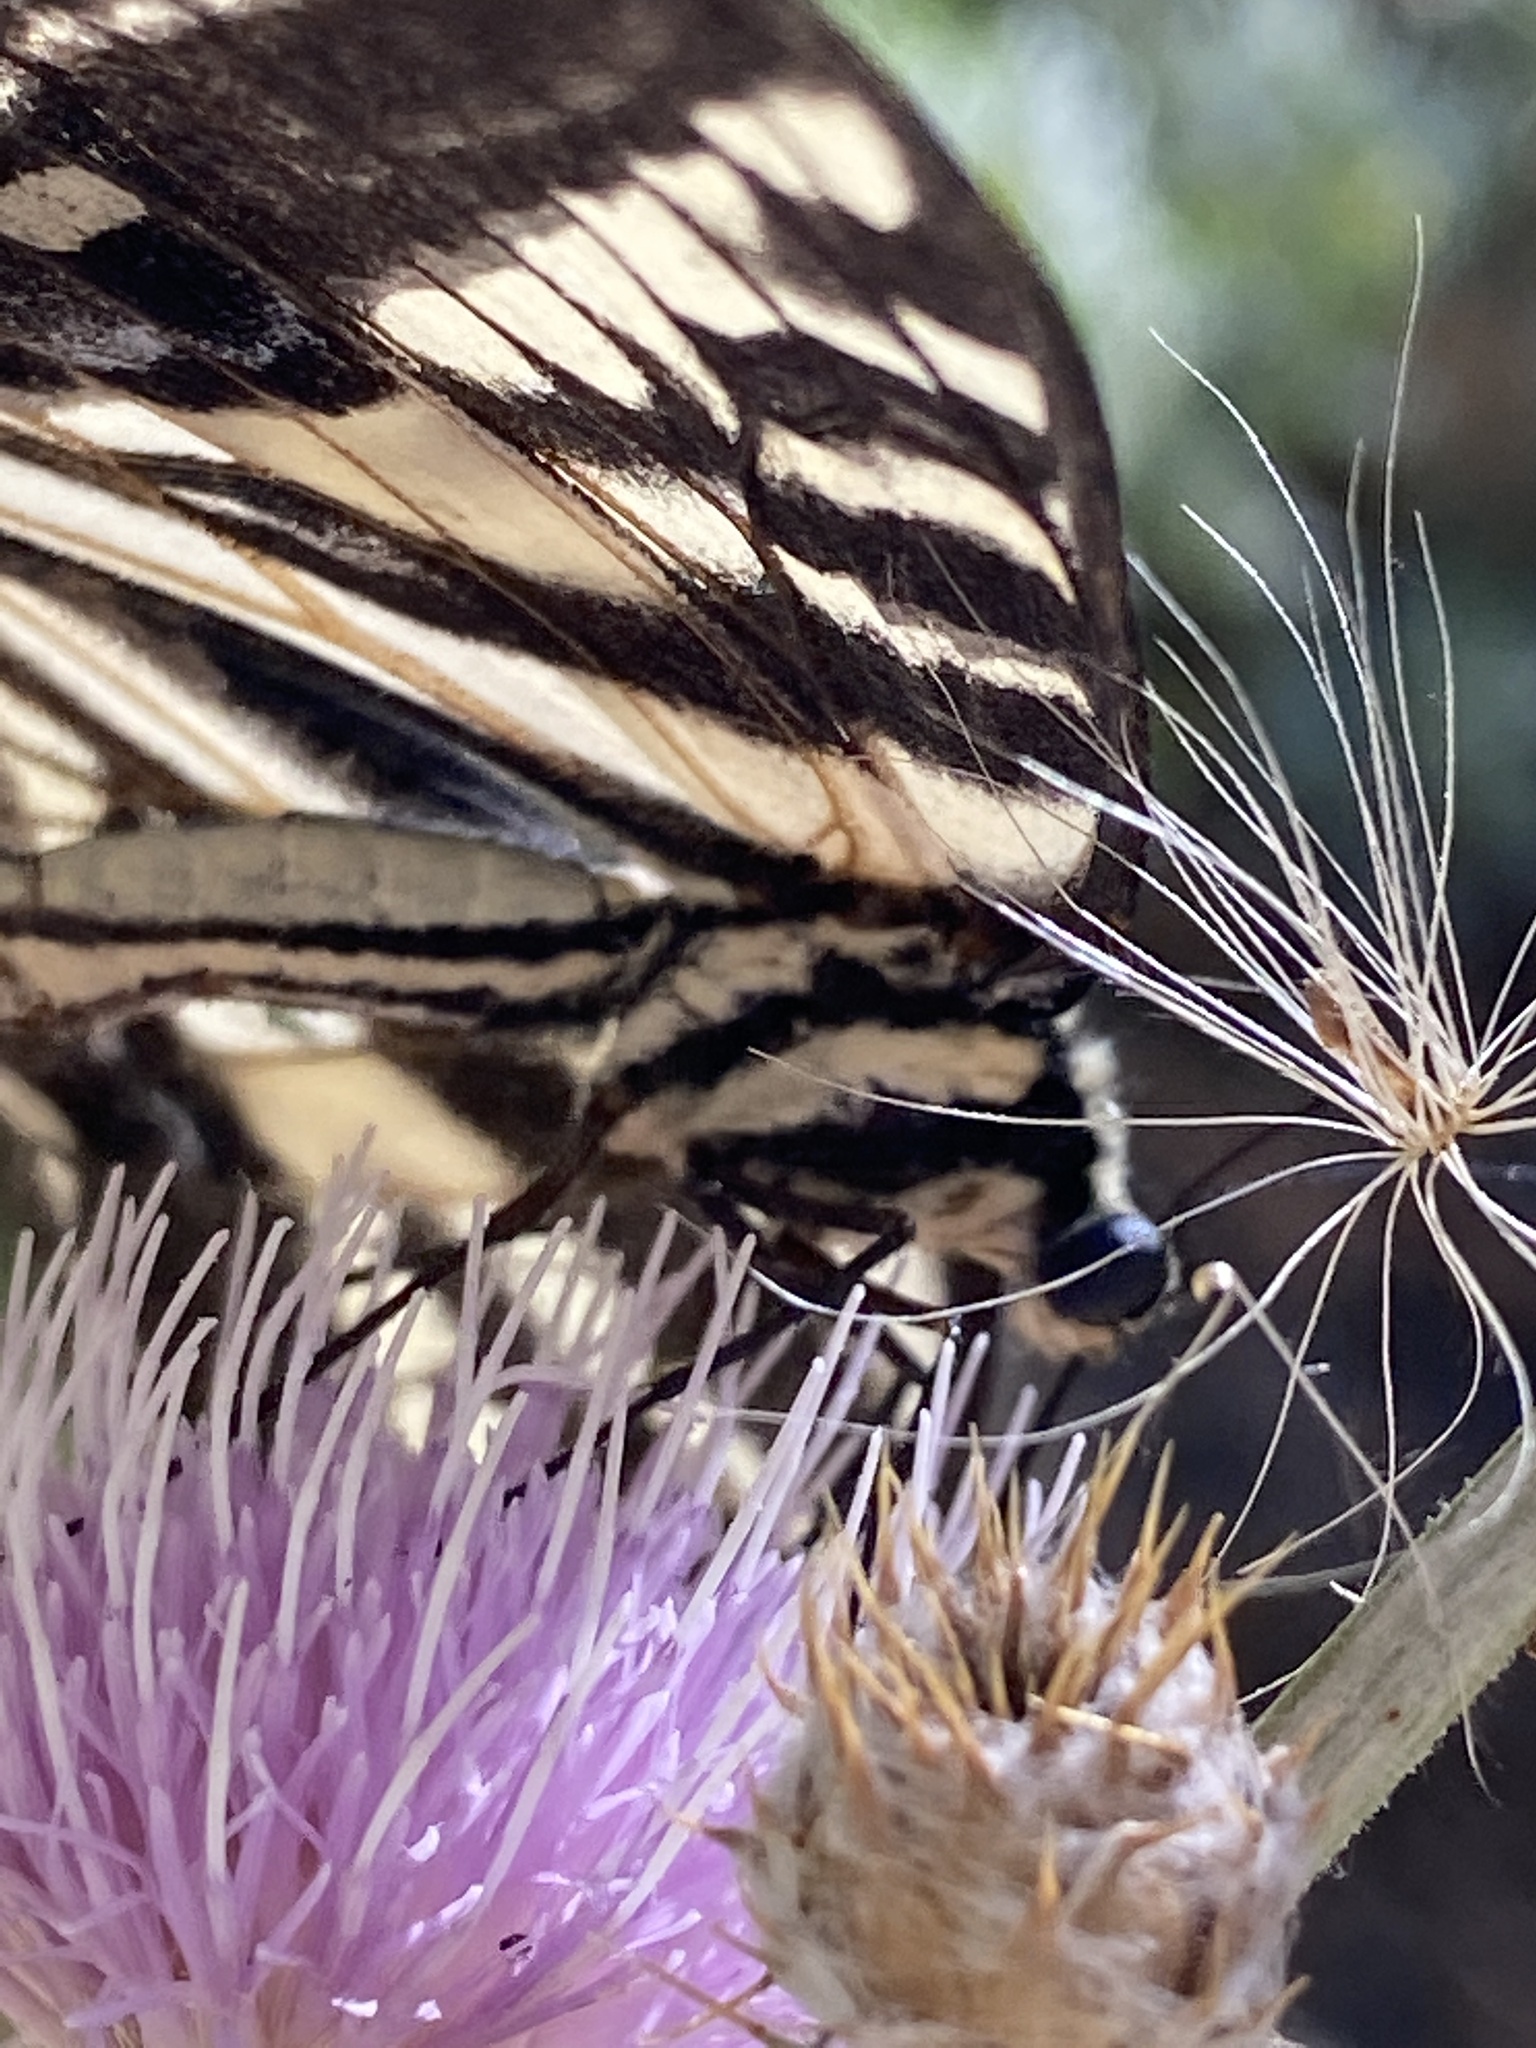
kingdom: Animalia
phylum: Arthropoda
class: Insecta
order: Lepidoptera
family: Papilionidae
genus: Papilio
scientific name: Papilio eurymedon
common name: Pale tiger swallowtail
